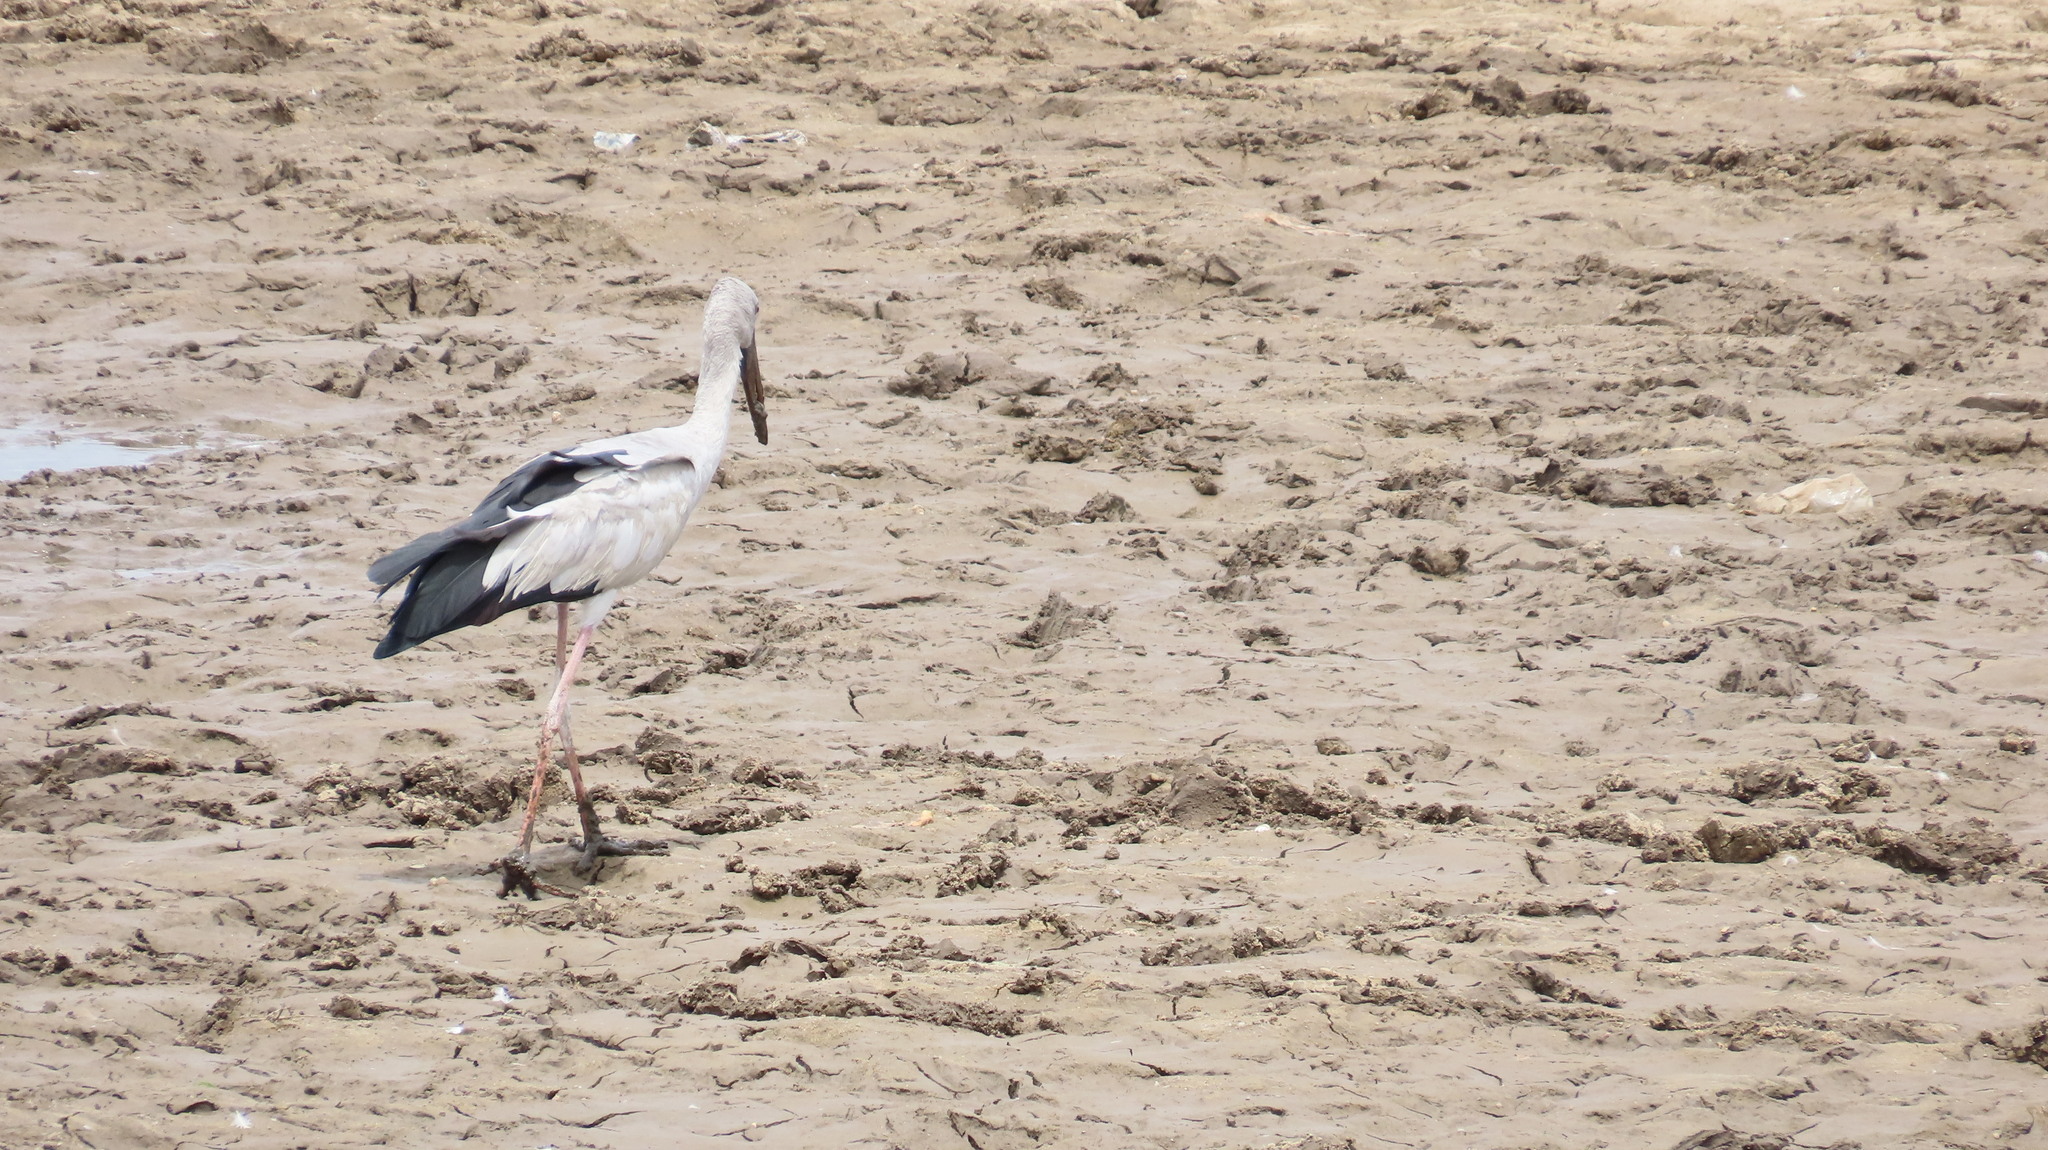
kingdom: Animalia
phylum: Chordata
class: Aves
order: Ciconiiformes
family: Ciconiidae
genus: Anastomus
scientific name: Anastomus oscitans
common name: Asian openbill
